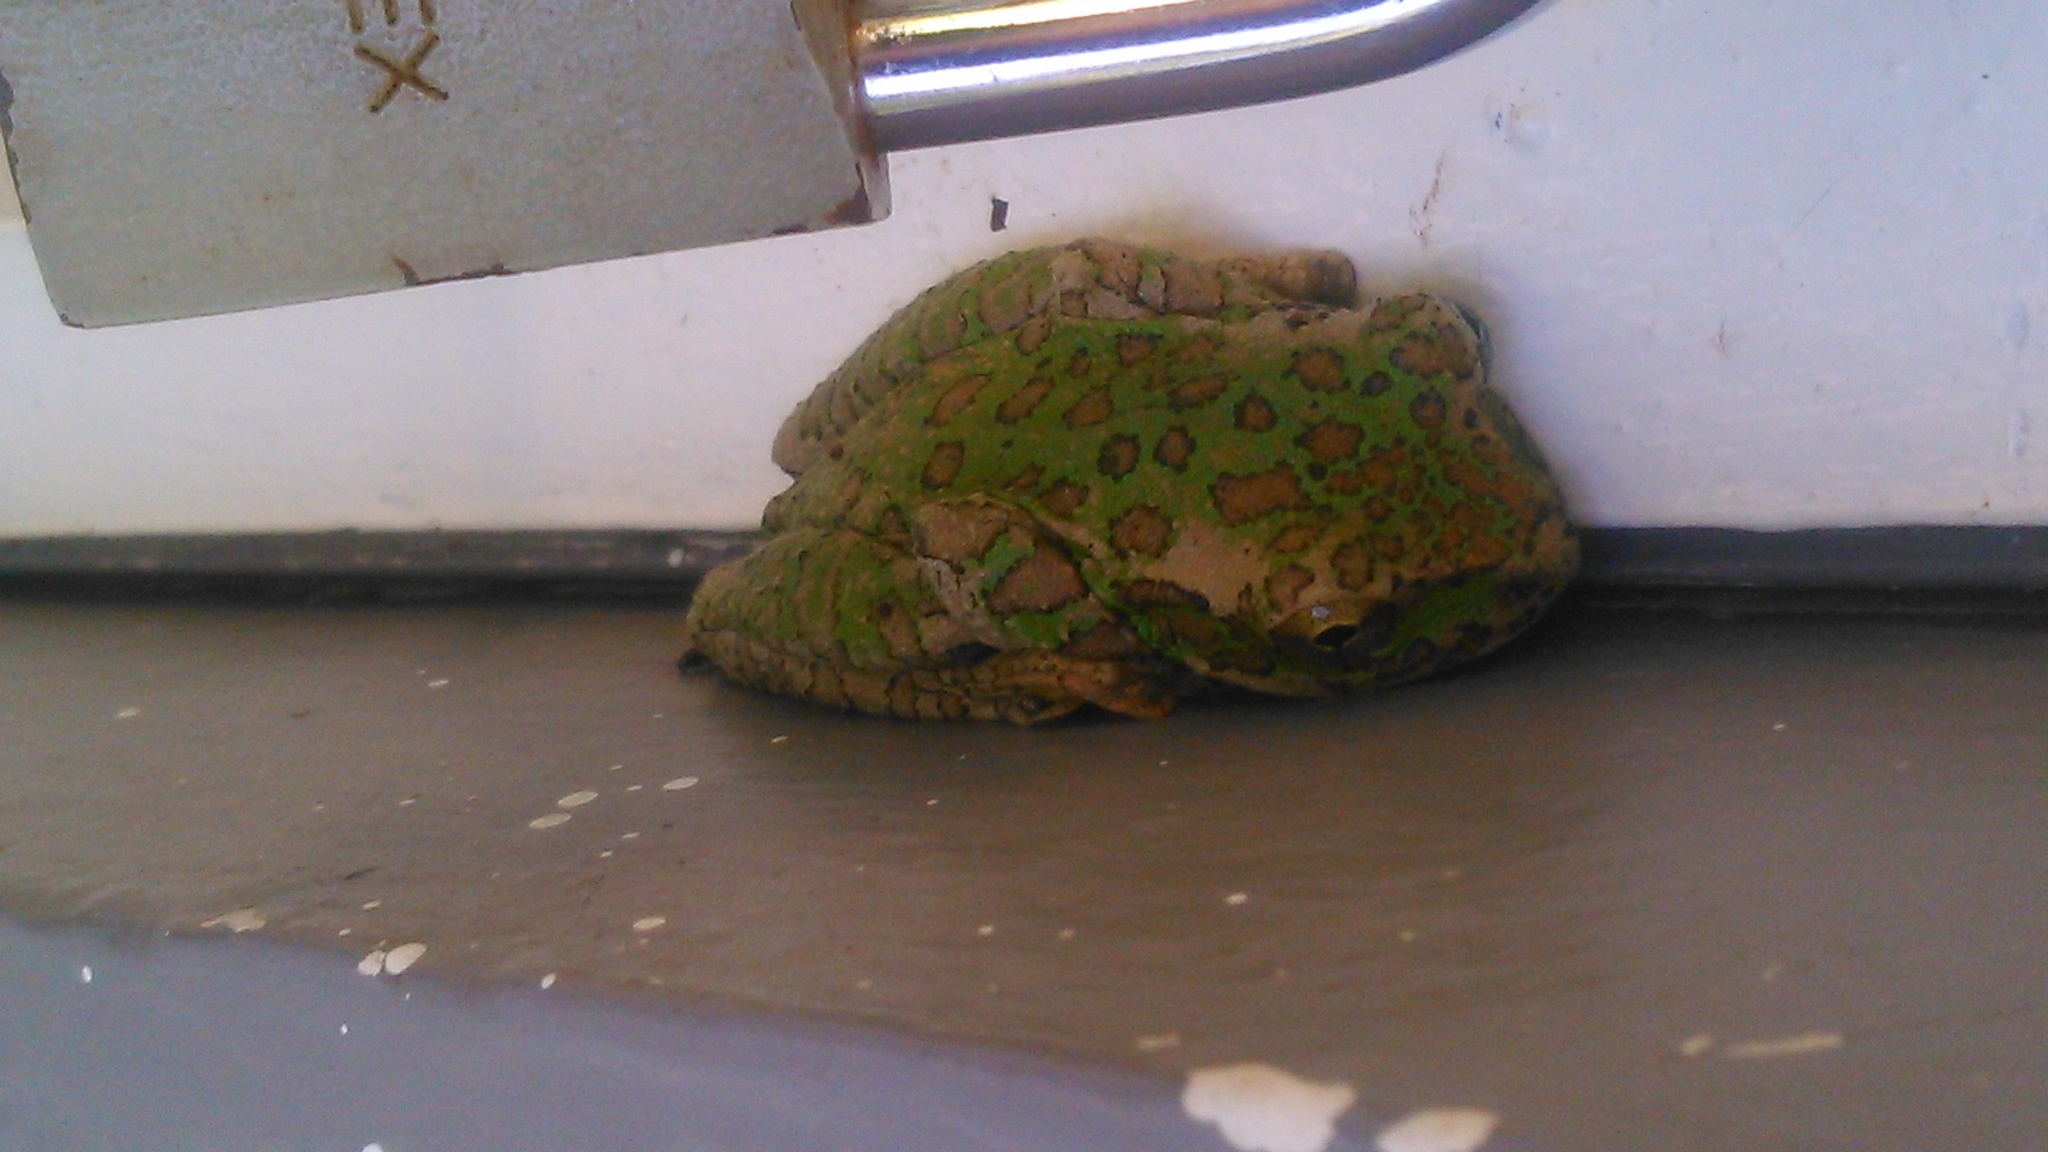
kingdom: Animalia
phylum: Chordata
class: Amphibia
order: Anura
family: Hylidae
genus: Charadrahyla
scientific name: Charadrahyla taeniopus
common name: Porthole treefrog
